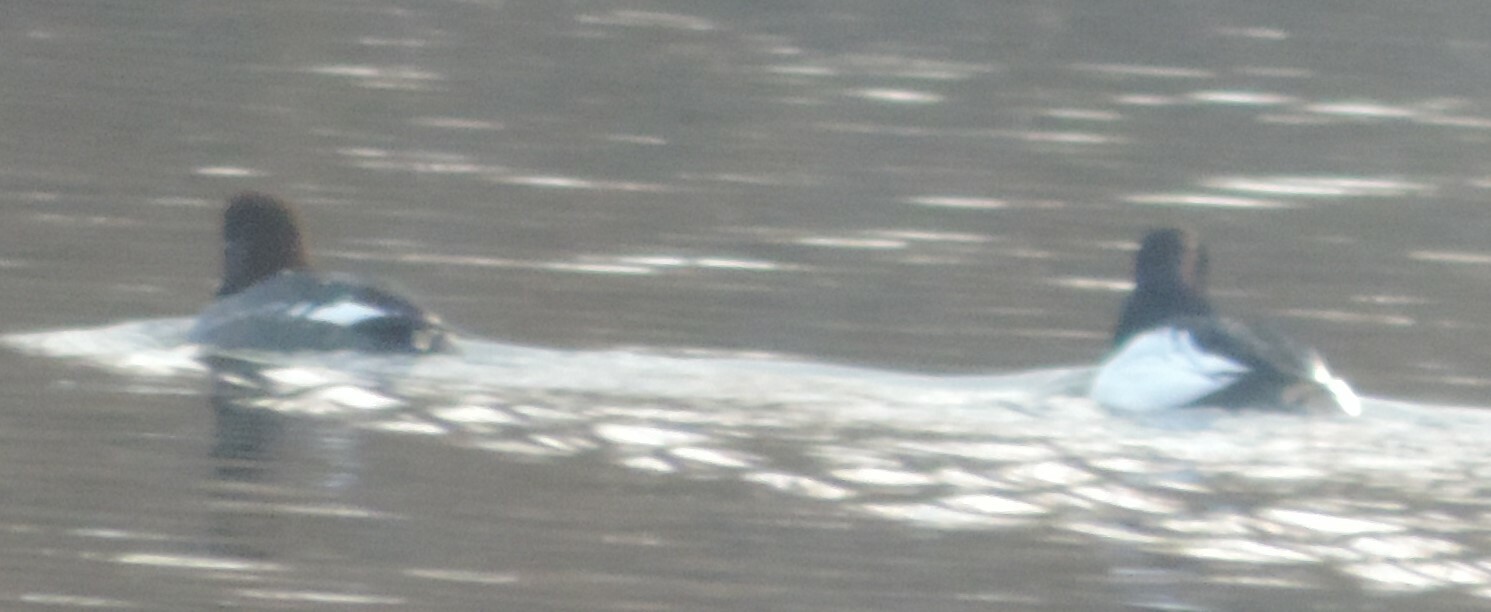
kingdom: Animalia
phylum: Chordata
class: Aves
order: Anseriformes
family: Anatidae
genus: Bucephala
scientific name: Bucephala clangula
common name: Common goldeneye
